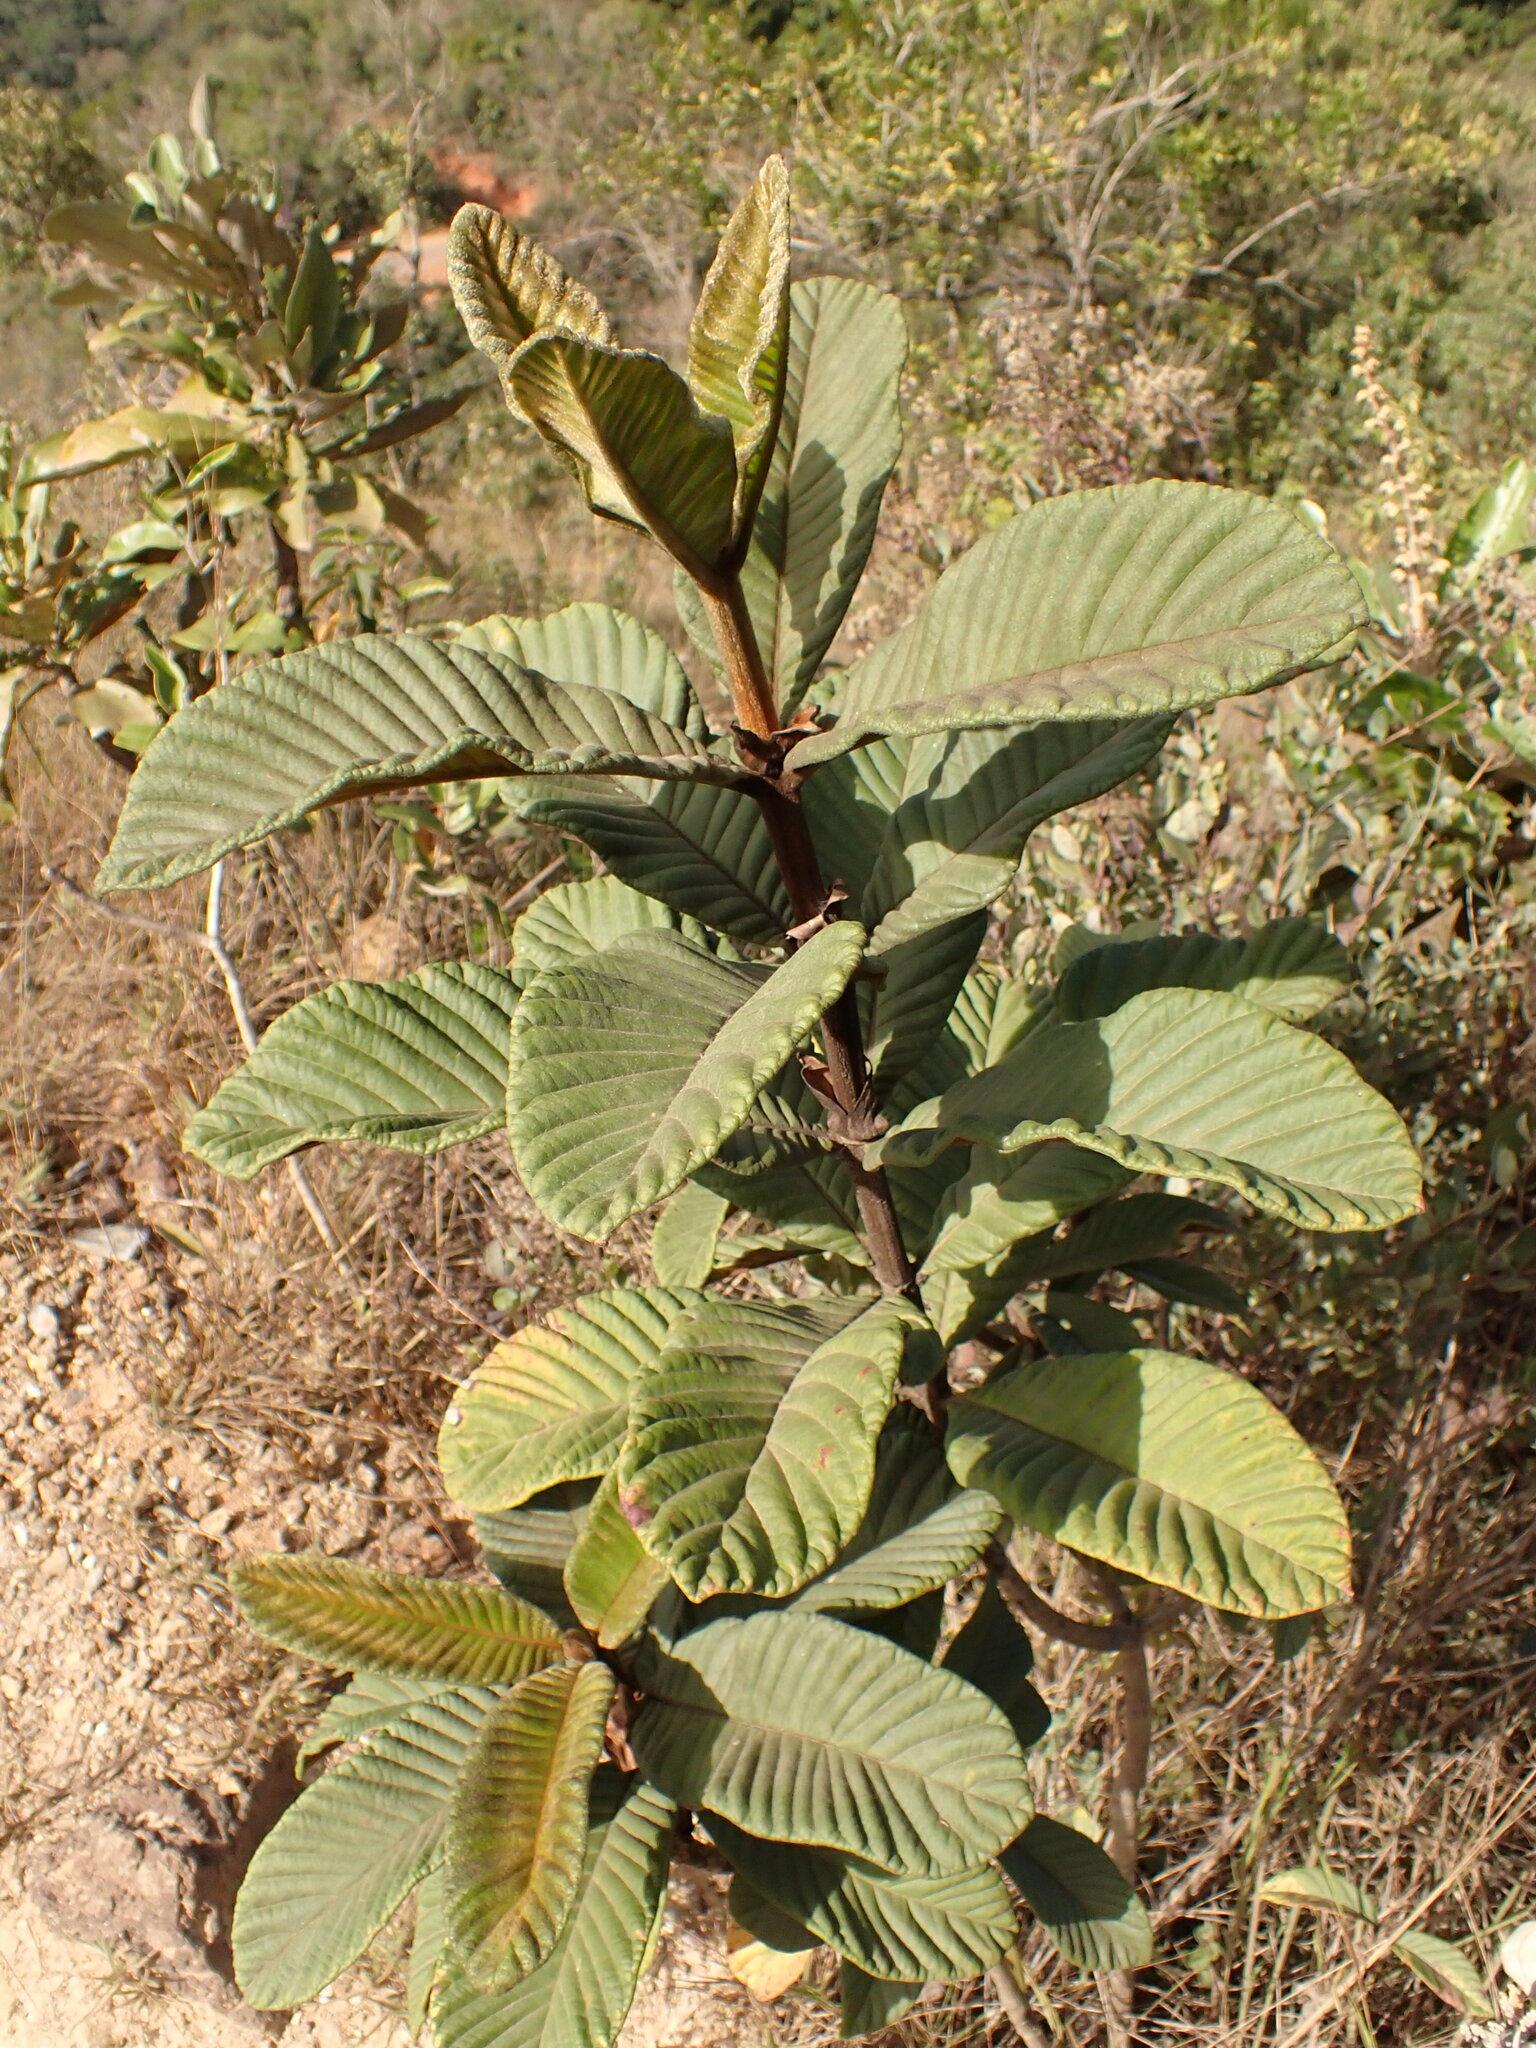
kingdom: Plantae
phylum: Tracheophyta
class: Magnoliopsida
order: Gentianales
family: Rubiaceae
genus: Remijia
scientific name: Remijia ferruginea
